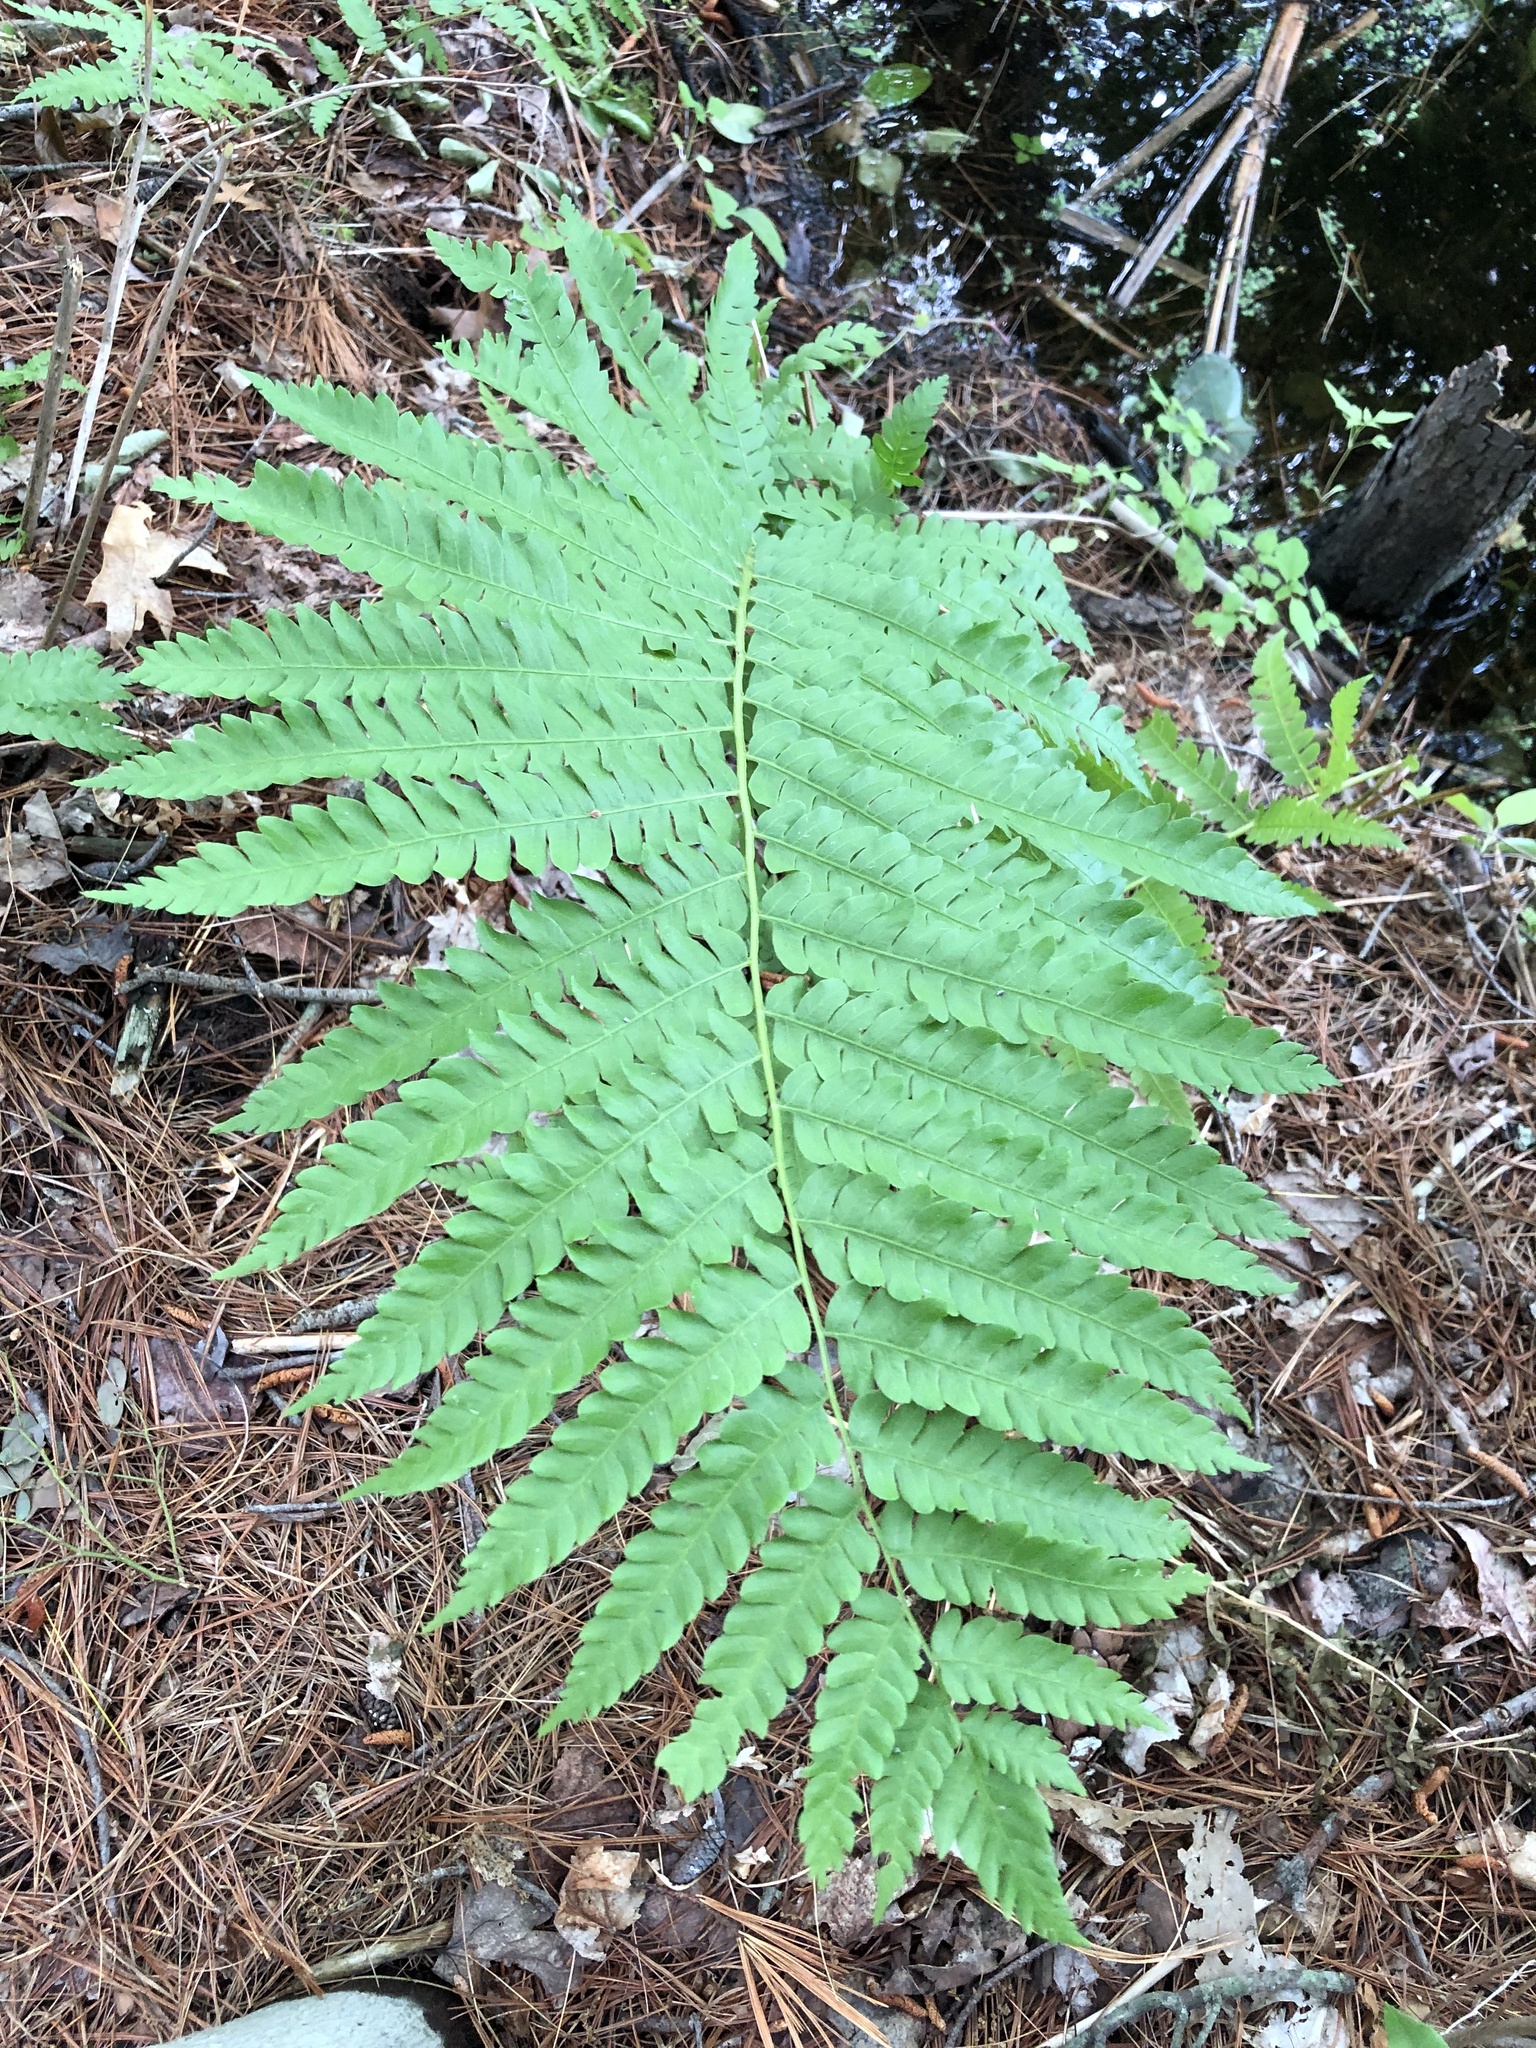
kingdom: Plantae
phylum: Tracheophyta
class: Polypodiopsida
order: Osmundales
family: Osmundaceae
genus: Osmundastrum
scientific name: Osmundastrum cinnamomeum
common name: Cinnamon fern
